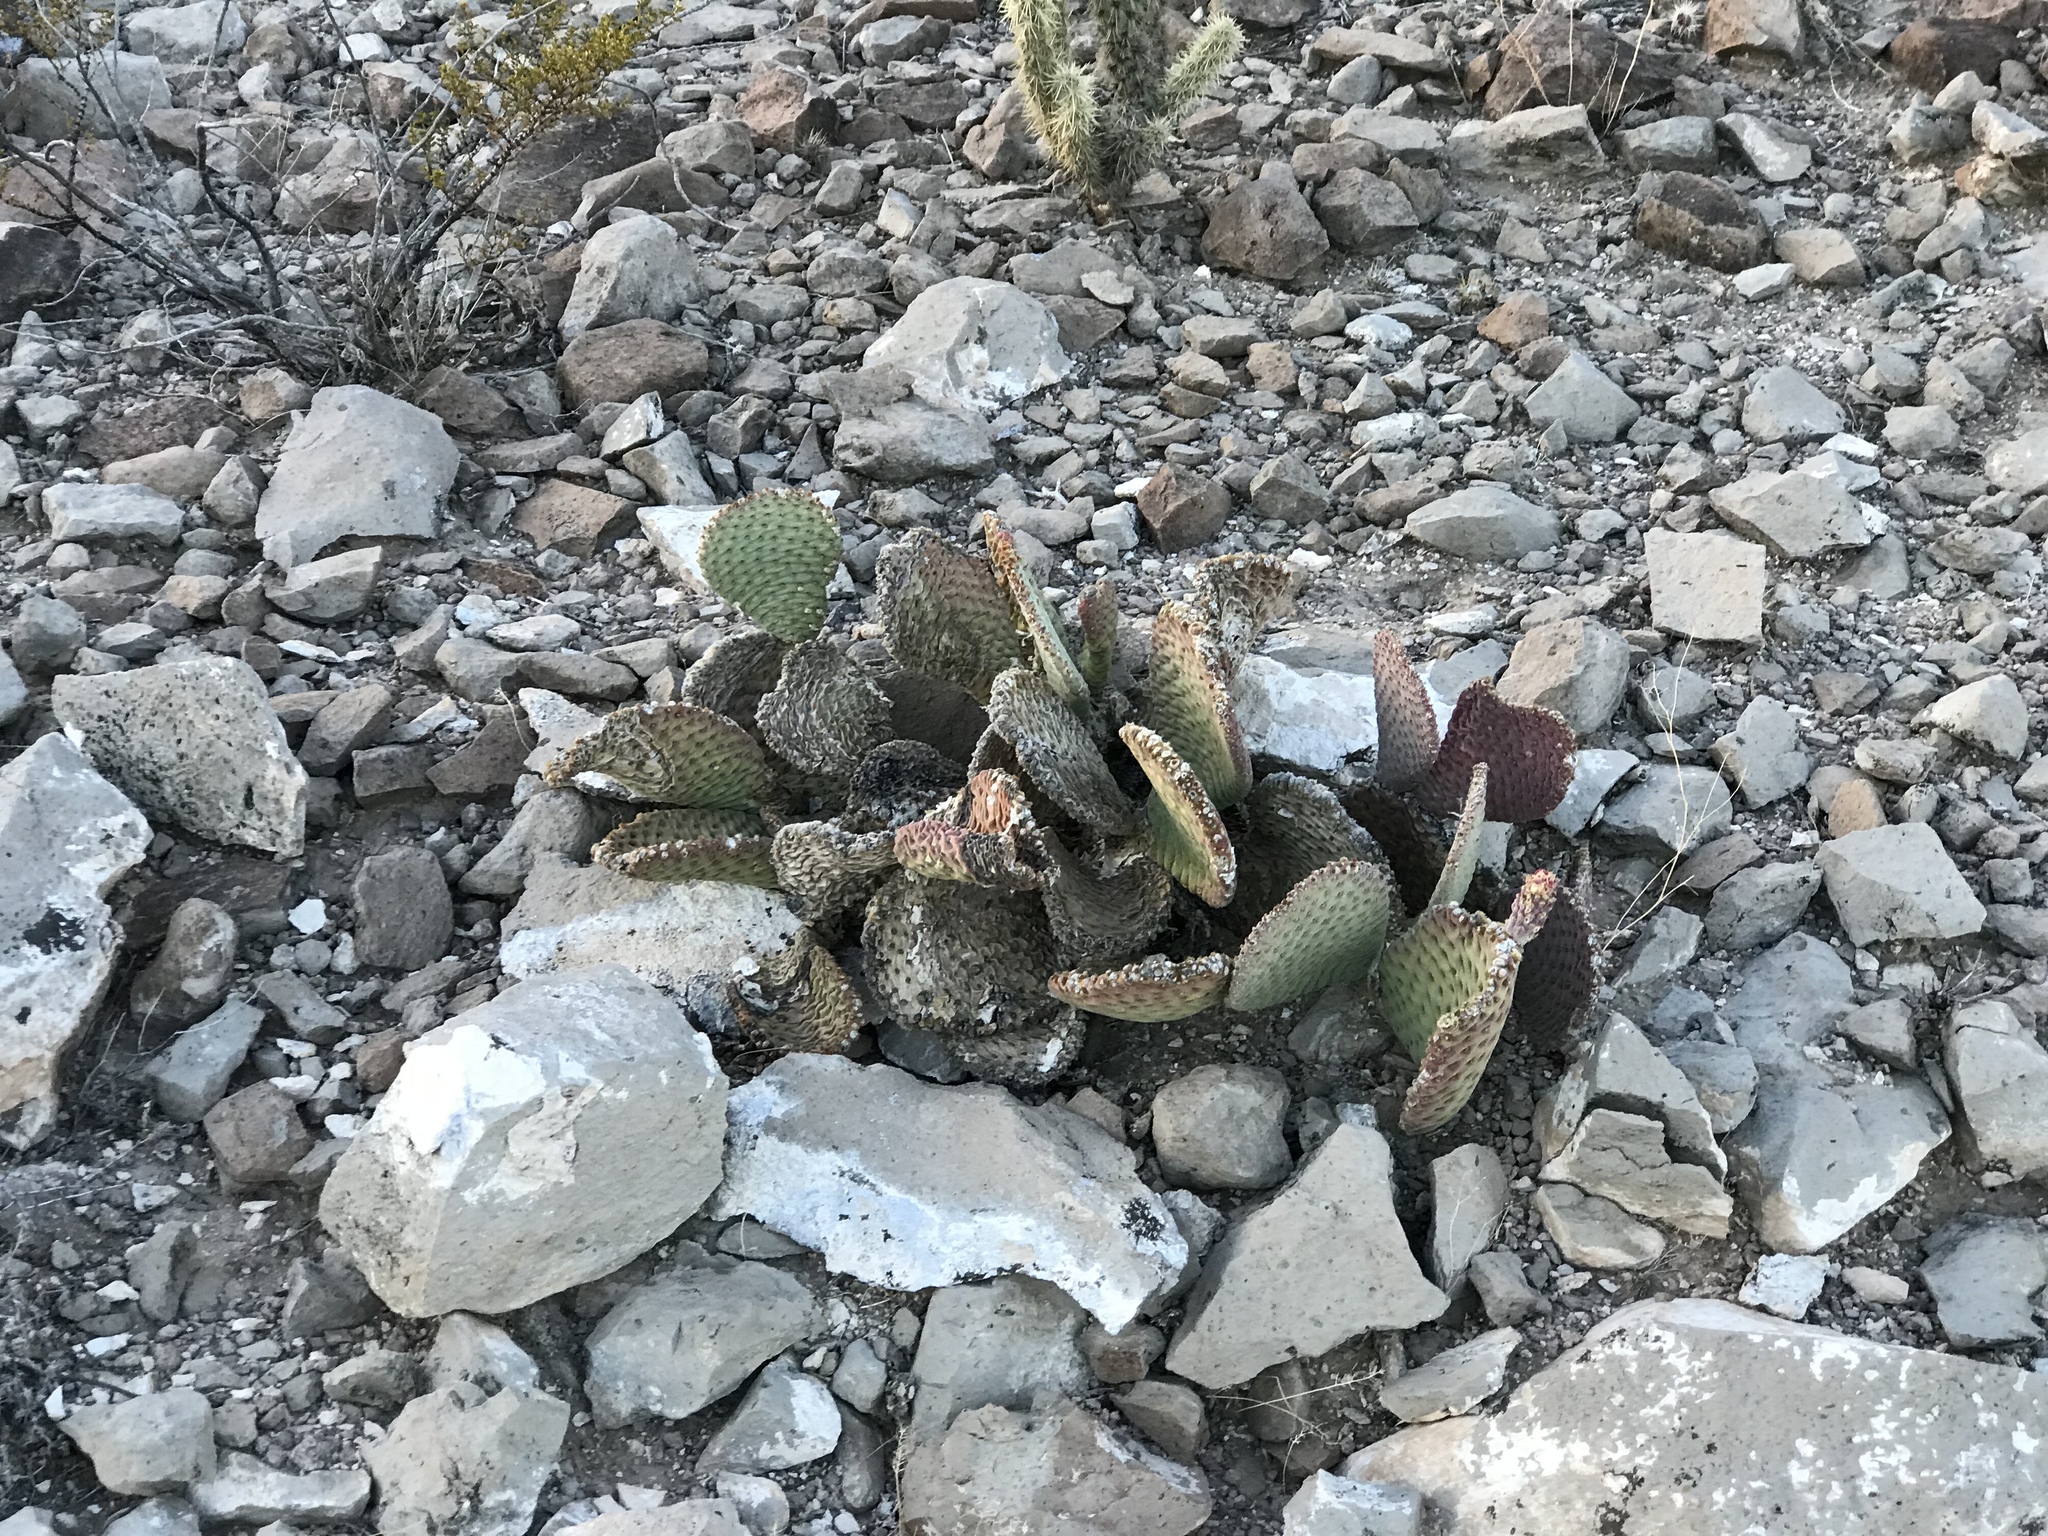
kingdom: Plantae
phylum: Tracheophyta
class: Magnoliopsida
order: Caryophyllales
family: Cactaceae
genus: Opuntia
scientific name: Opuntia basilaris
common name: Beavertail prickly-pear
